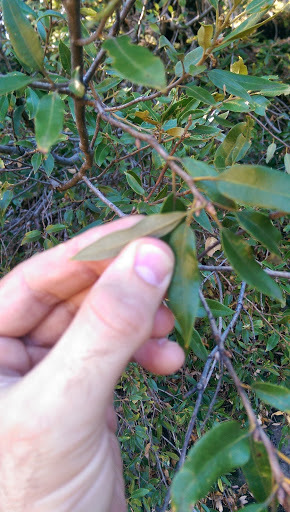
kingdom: Plantae
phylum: Tracheophyta
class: Magnoliopsida
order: Fagales
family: Fagaceae
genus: Quercus
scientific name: Quercus chrysolepis
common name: Canyon live oak
